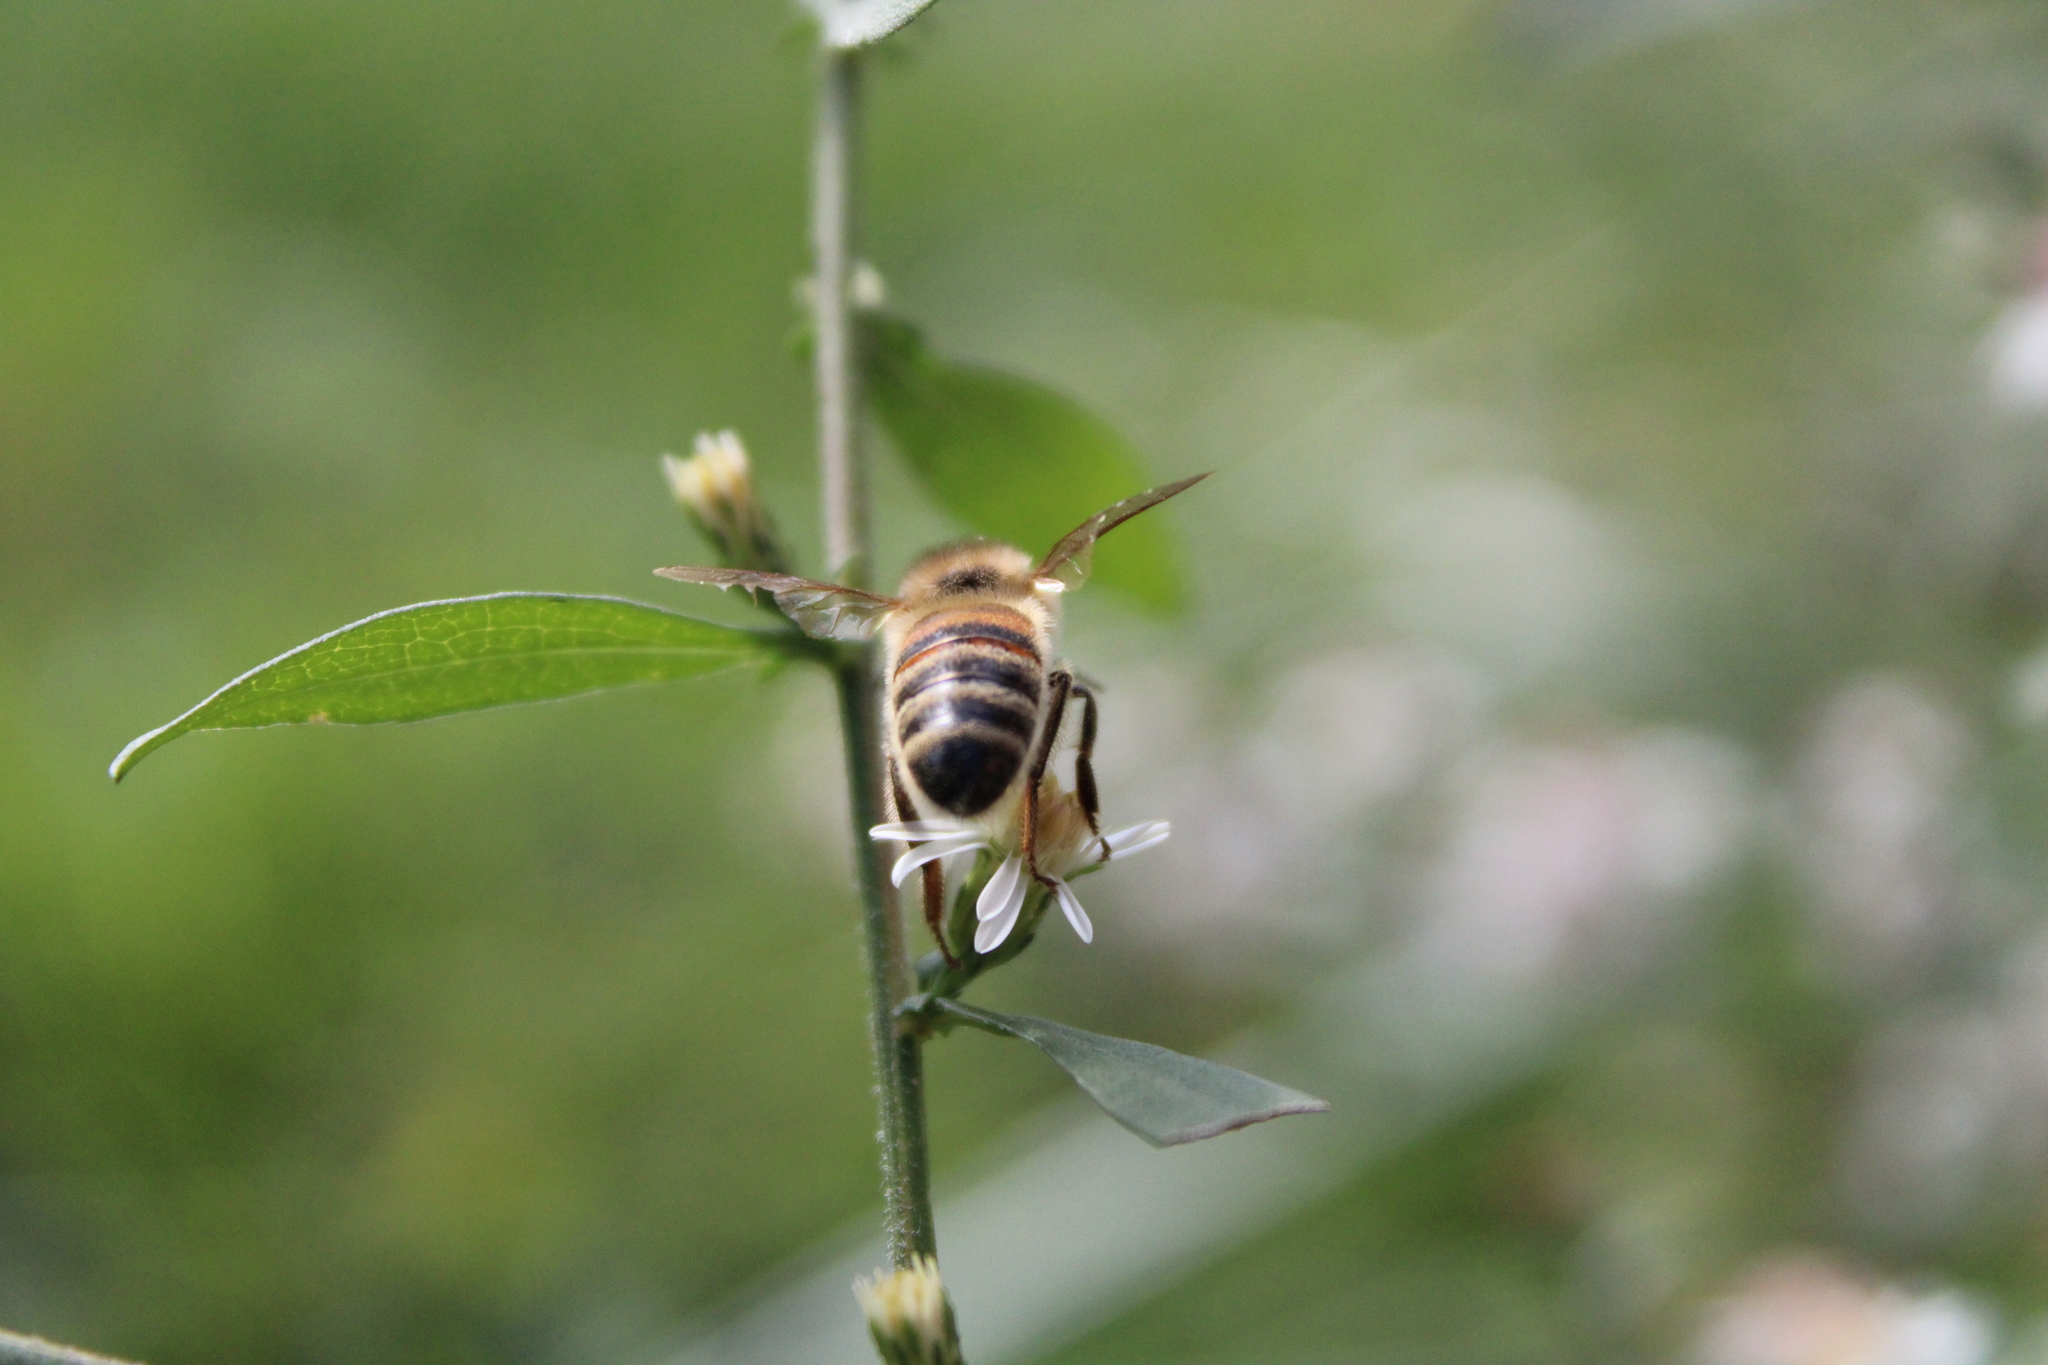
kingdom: Animalia
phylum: Arthropoda
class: Insecta
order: Hymenoptera
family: Apidae
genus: Apis
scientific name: Apis mellifera
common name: Honey bee
